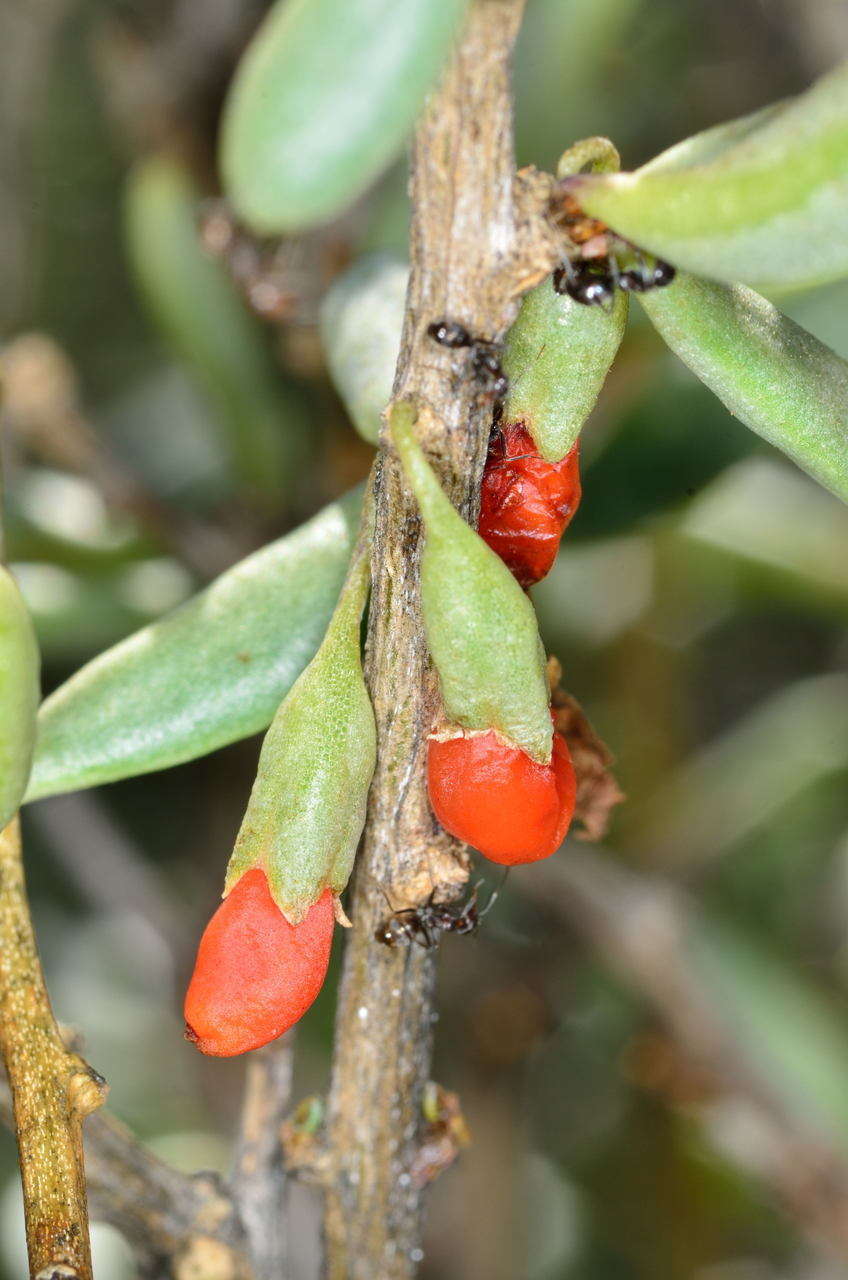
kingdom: Plantae
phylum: Tracheophyta
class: Magnoliopsida
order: Solanales
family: Solanaceae
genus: Lycium
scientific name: Lycium australe
